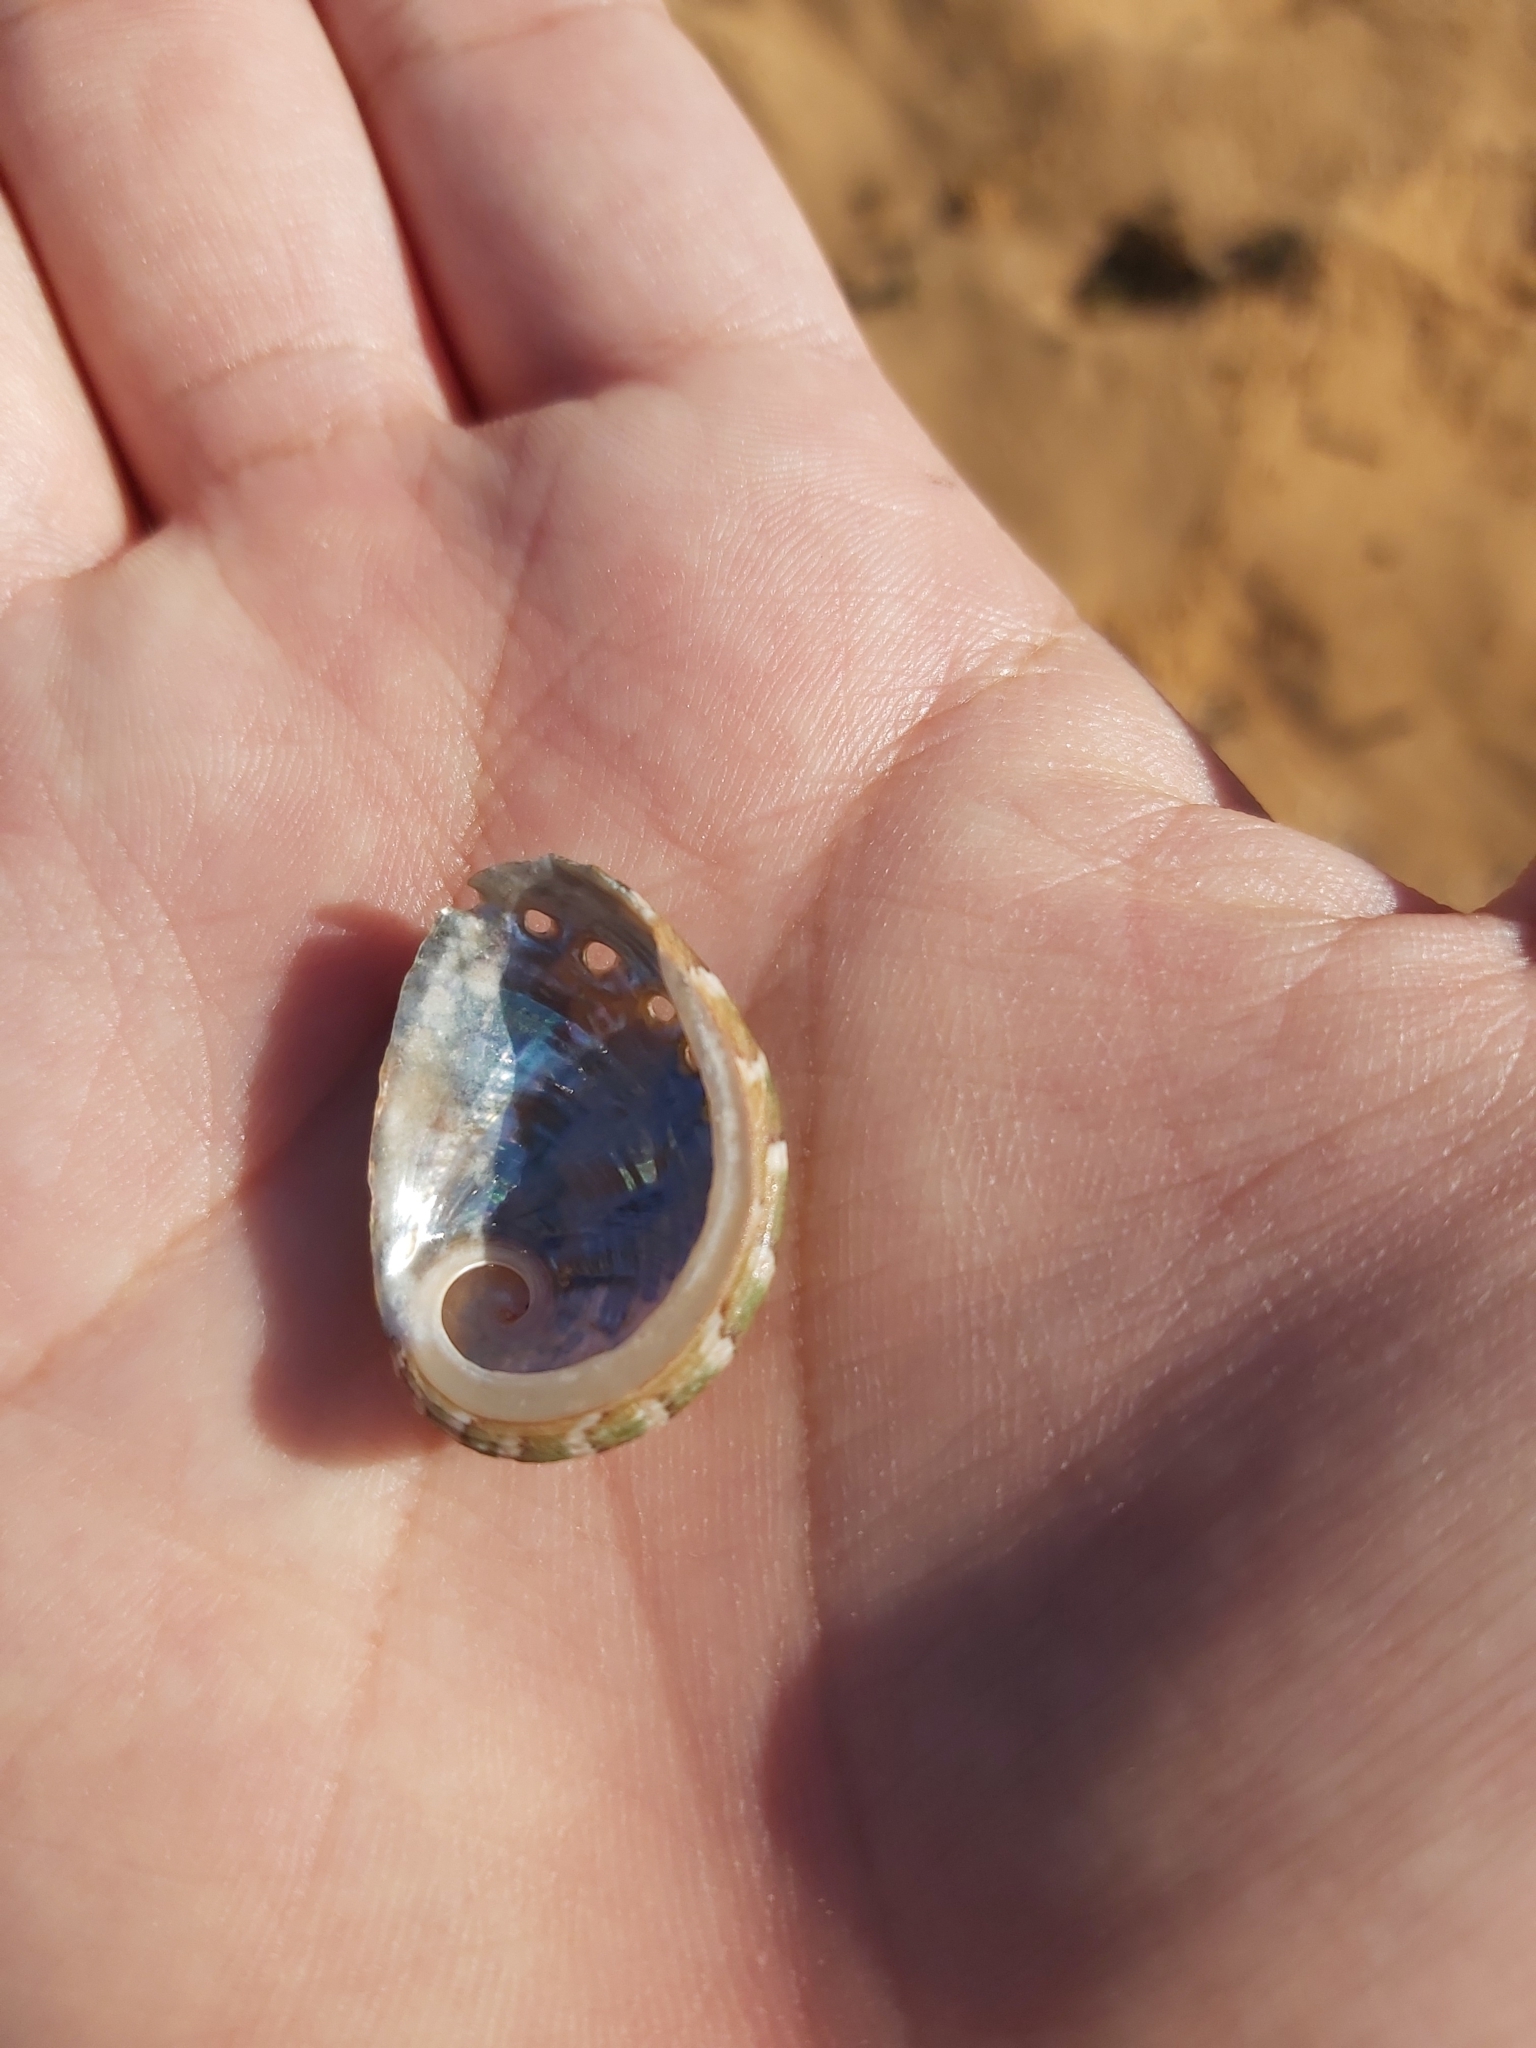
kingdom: Animalia
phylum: Mollusca
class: Gastropoda
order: Lepetellida
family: Haliotidae
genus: Haliotis
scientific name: Haliotis coccoradiata
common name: Reddish-rayed abalone
